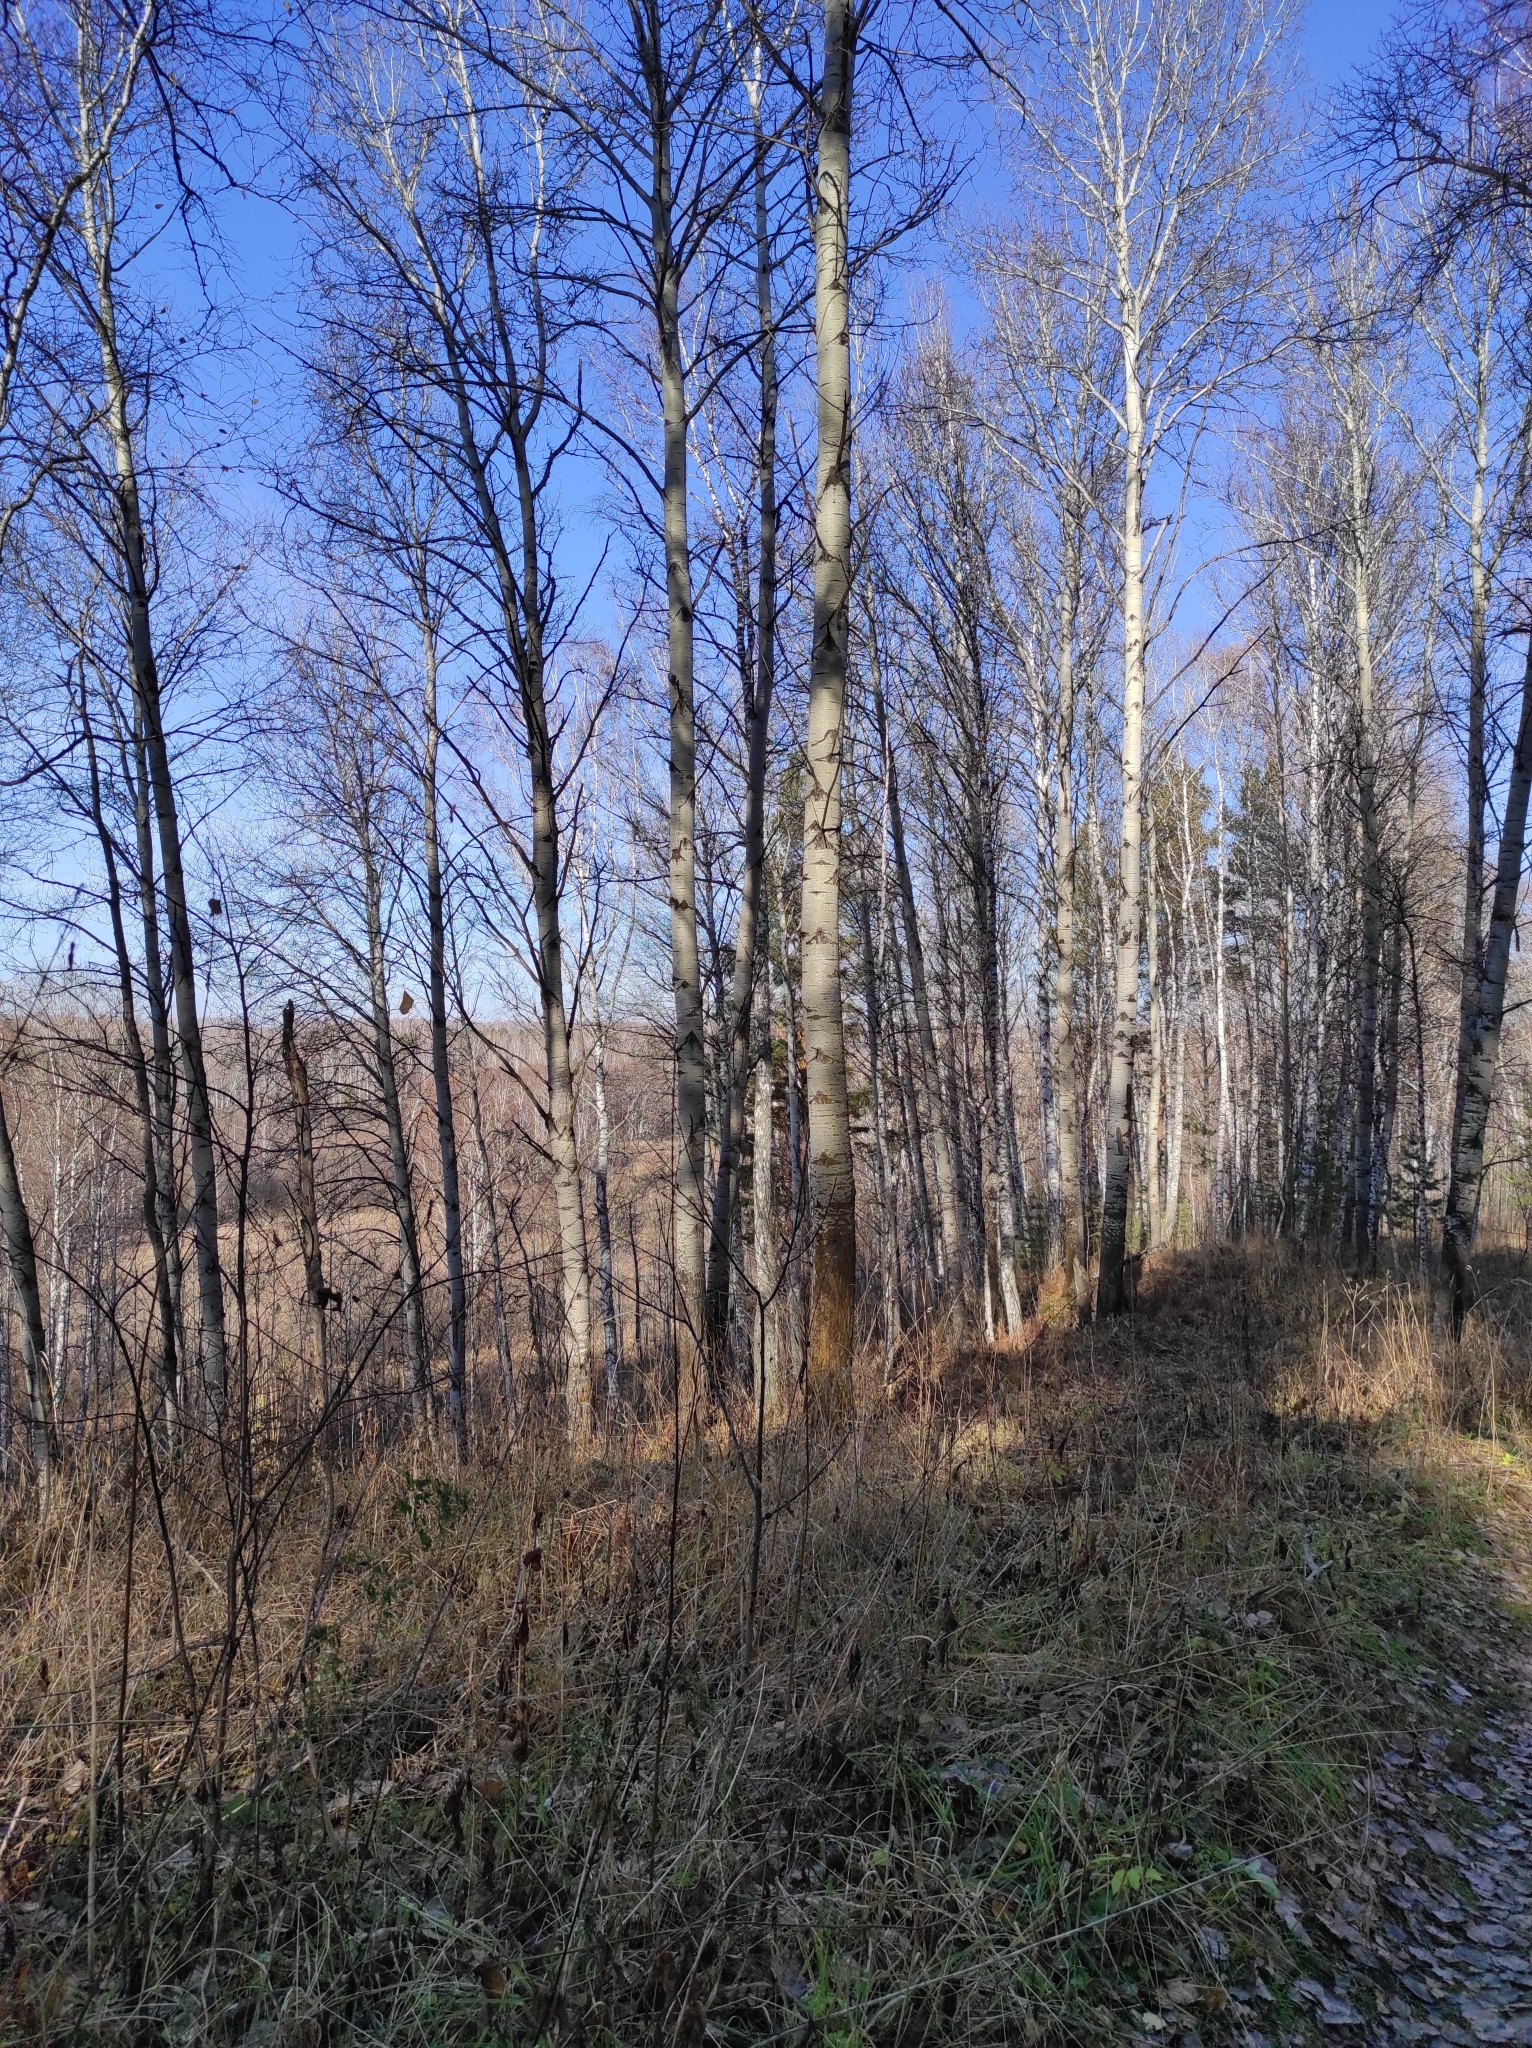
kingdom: Plantae
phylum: Tracheophyta
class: Magnoliopsida
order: Malpighiales
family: Salicaceae
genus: Populus
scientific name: Populus tremula
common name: European aspen
